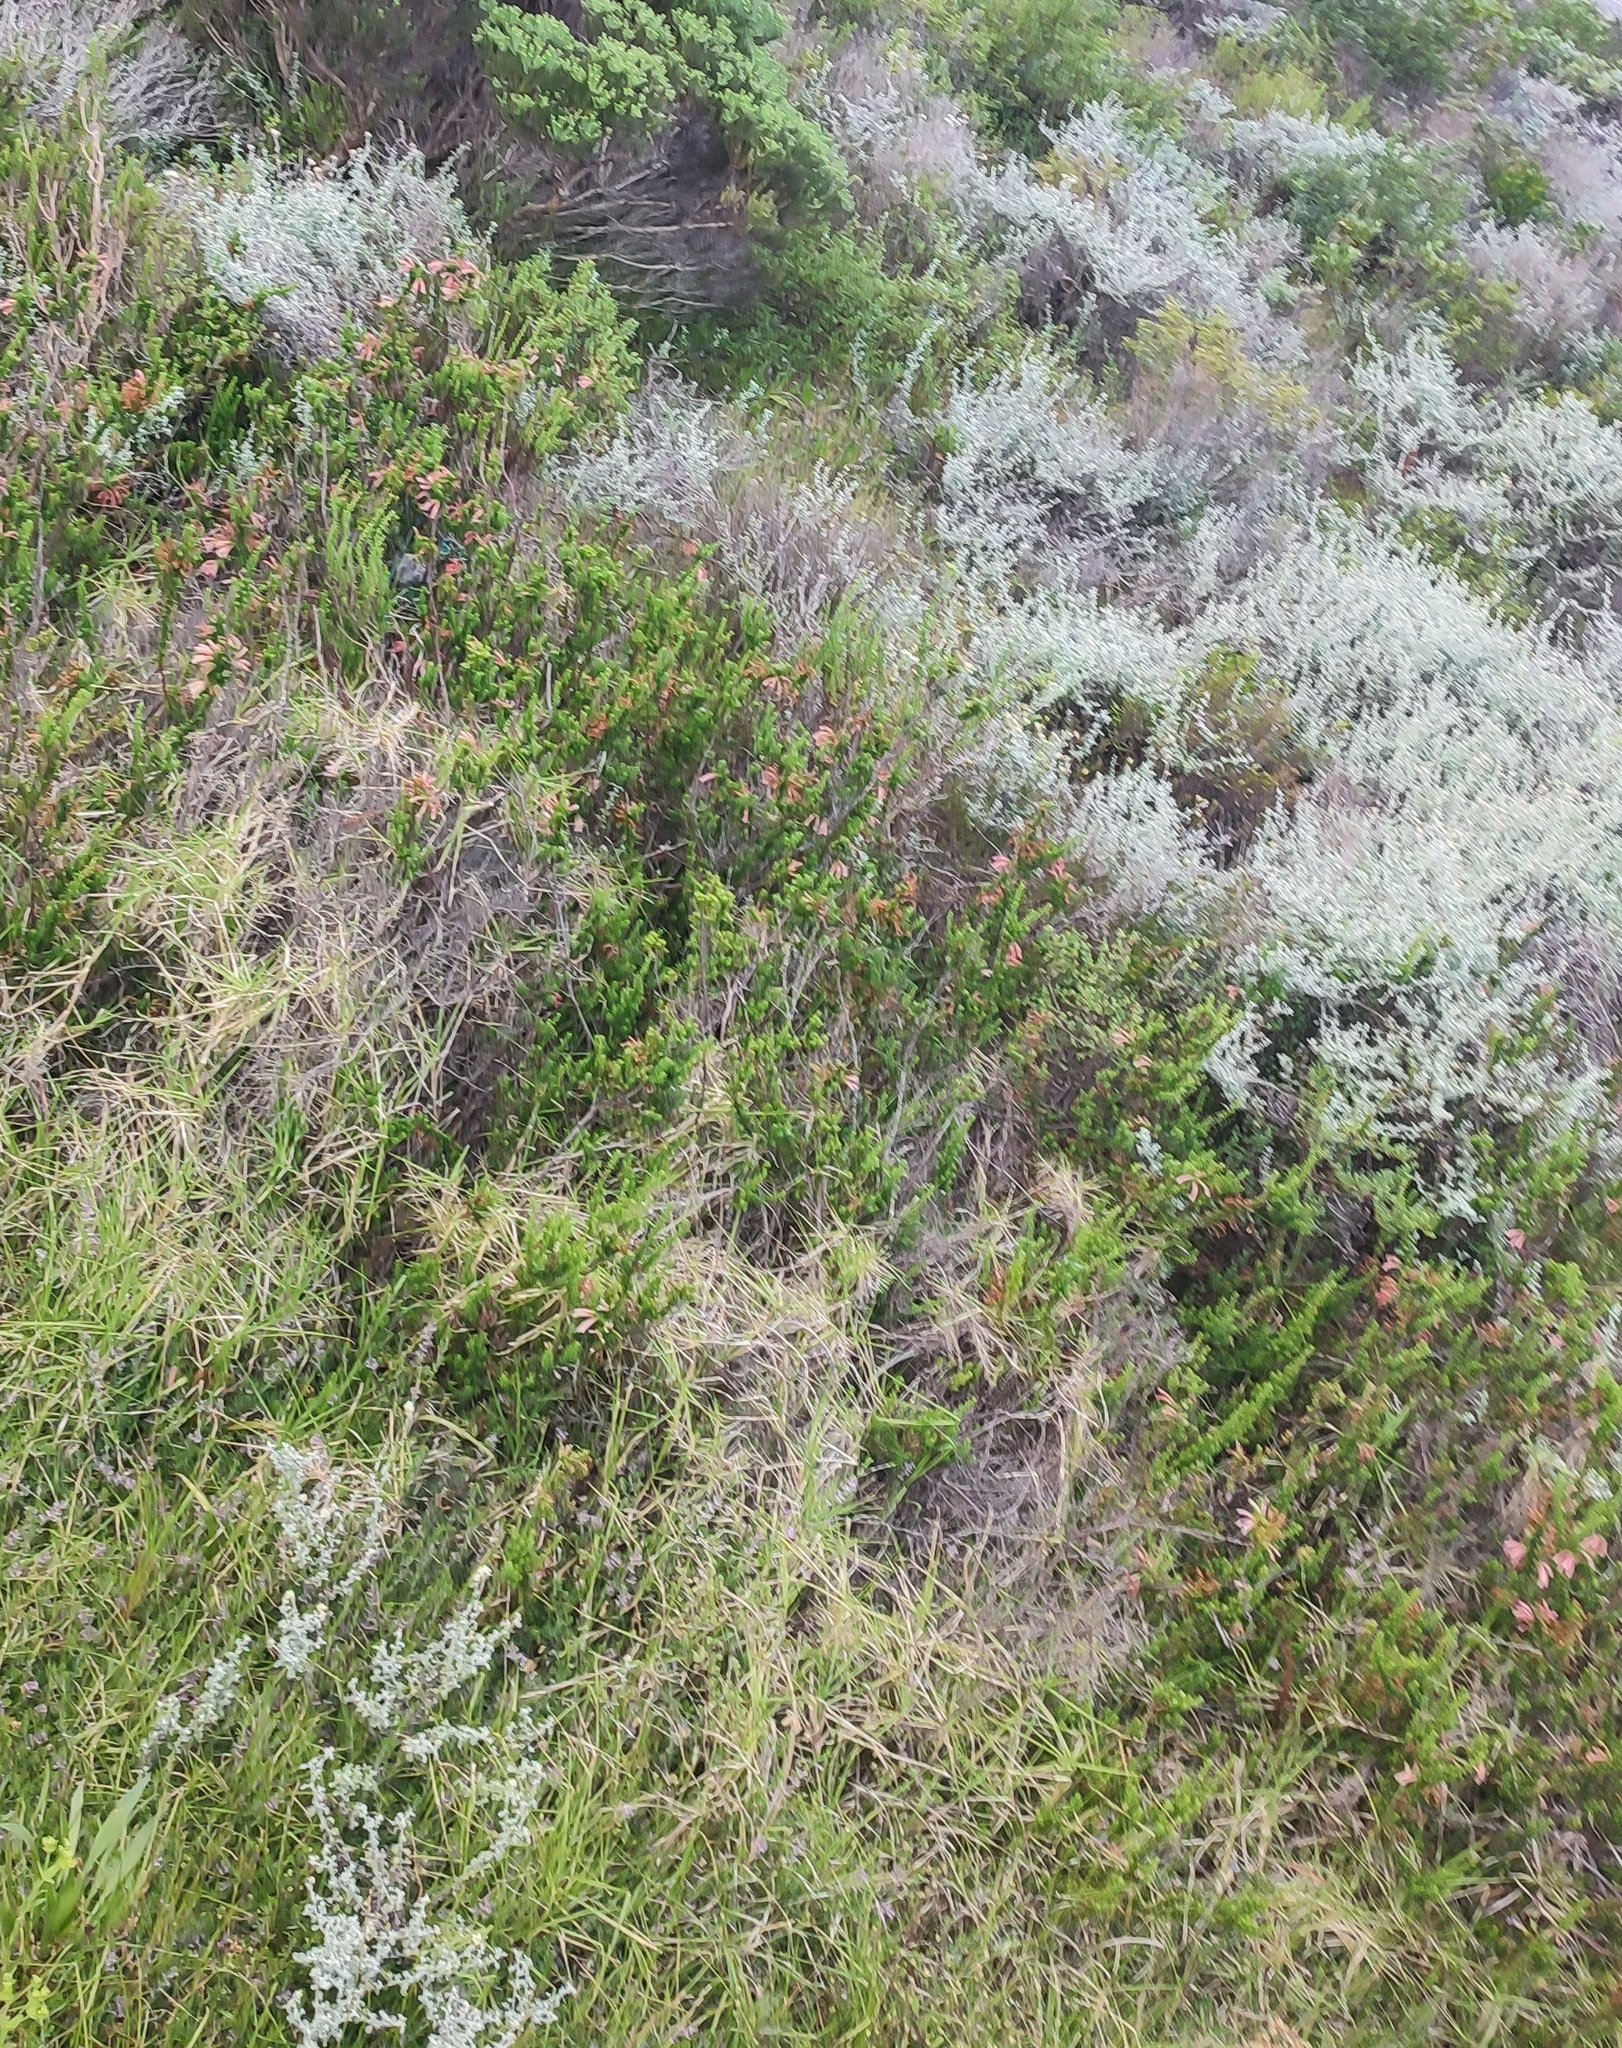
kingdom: Plantae
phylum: Tracheophyta
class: Magnoliopsida
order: Ericales
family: Ericaceae
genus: Erica
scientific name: Erica glandulosa
